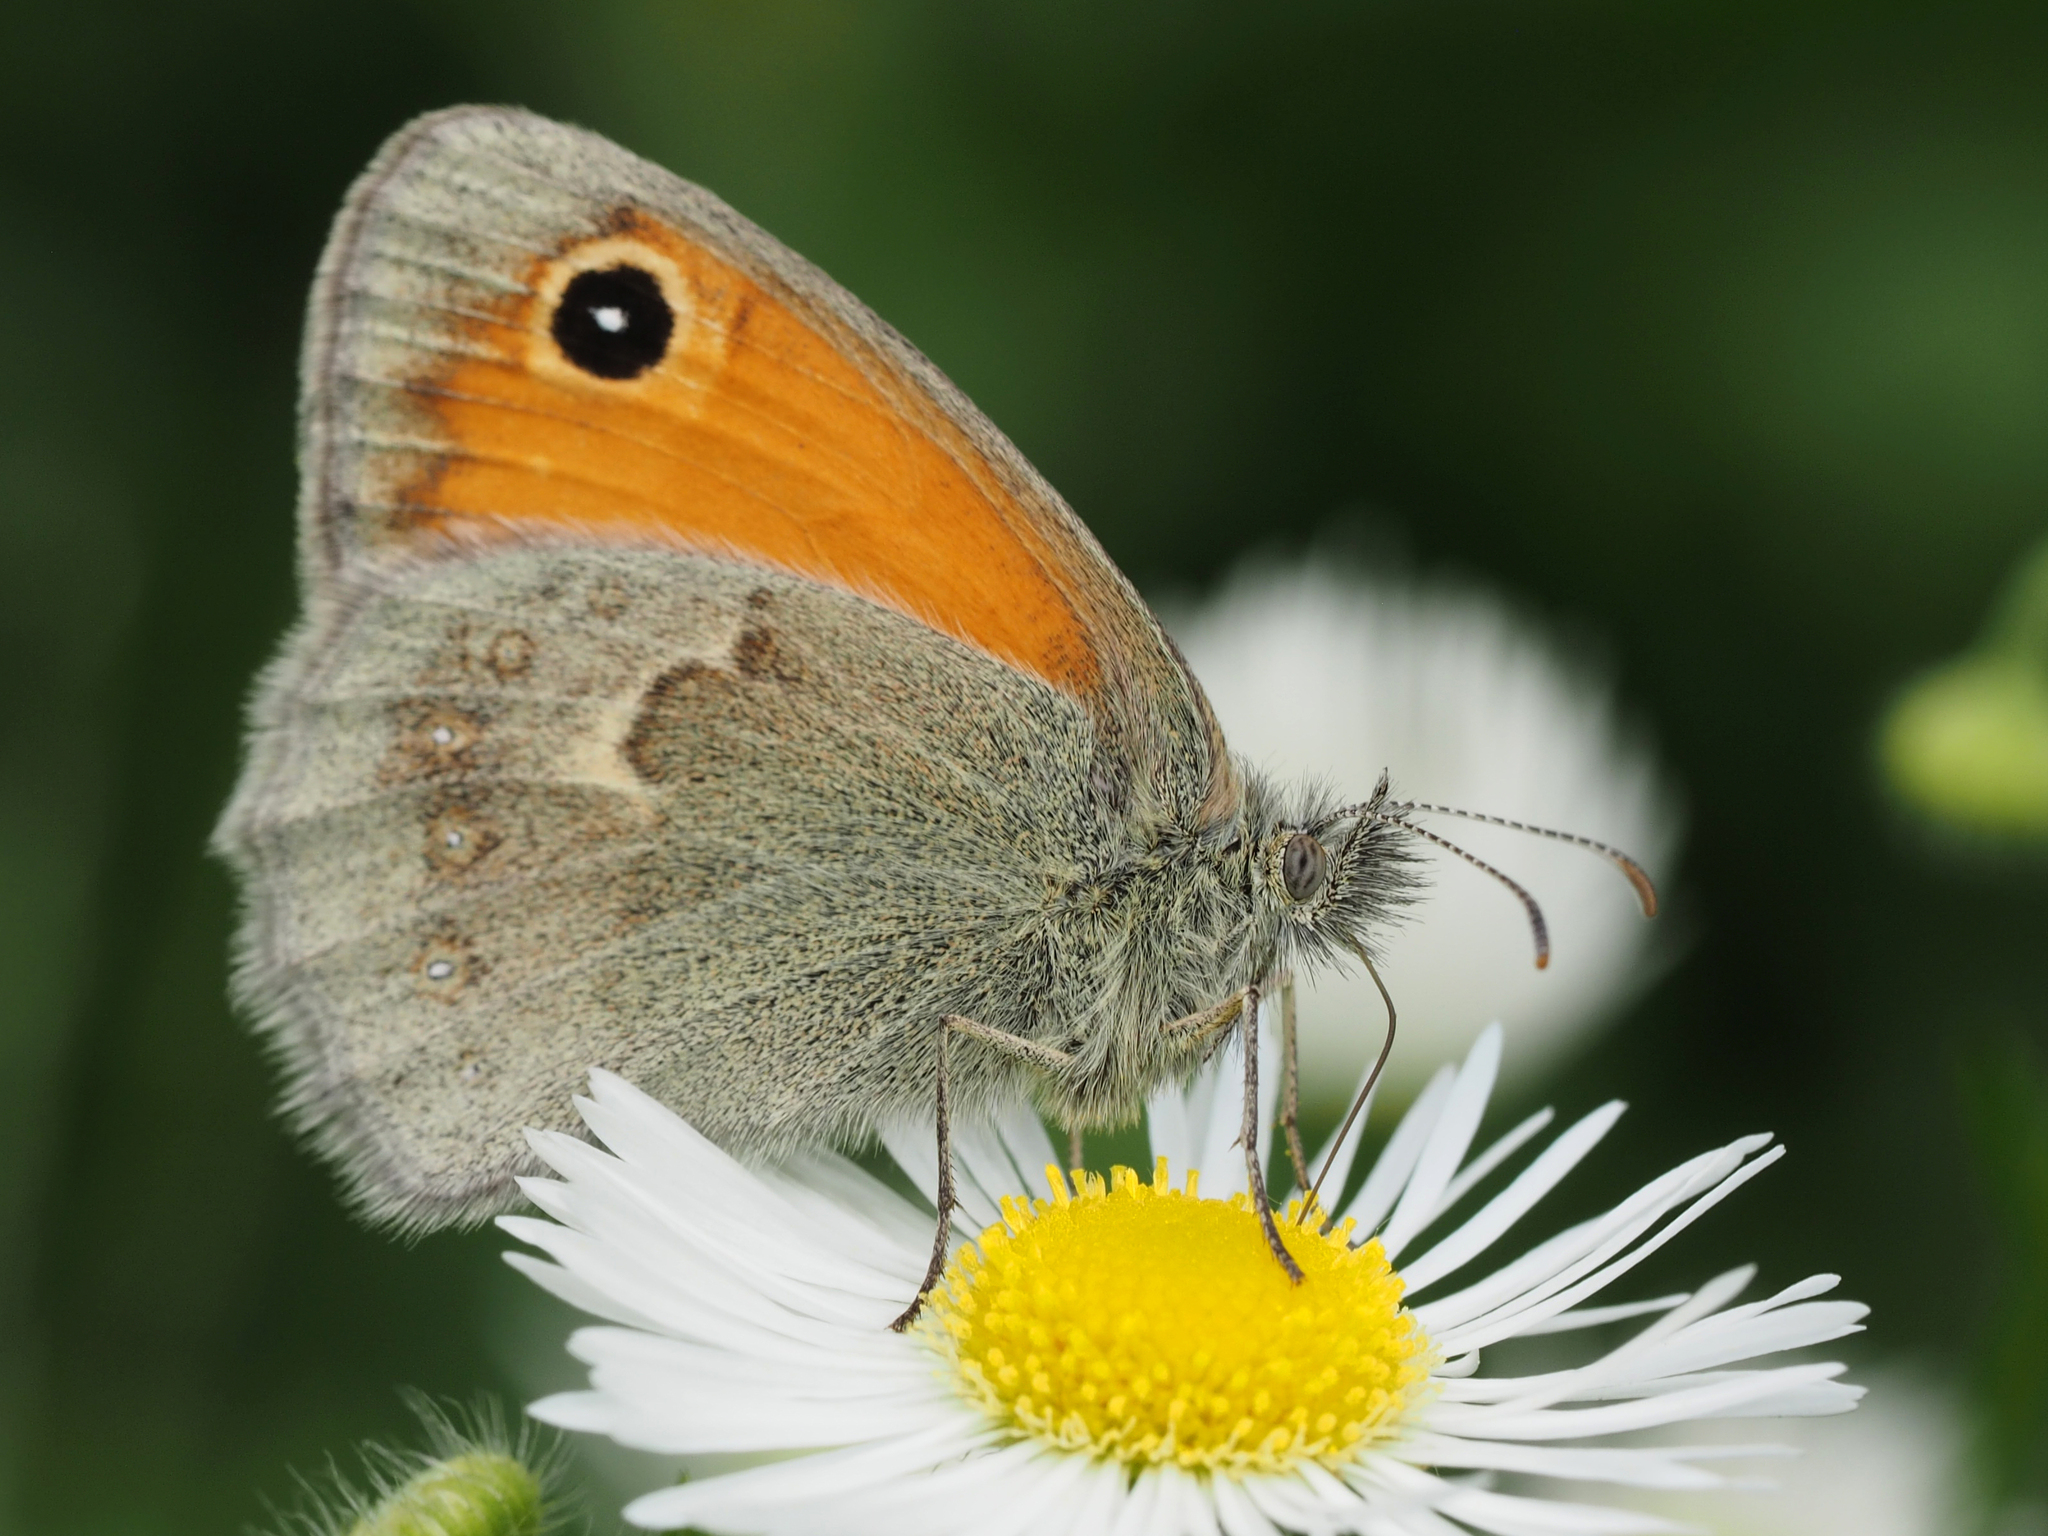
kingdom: Animalia
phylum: Arthropoda
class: Insecta
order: Lepidoptera
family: Nymphalidae
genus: Coenonympha
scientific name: Coenonympha pamphilus
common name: Small heath
